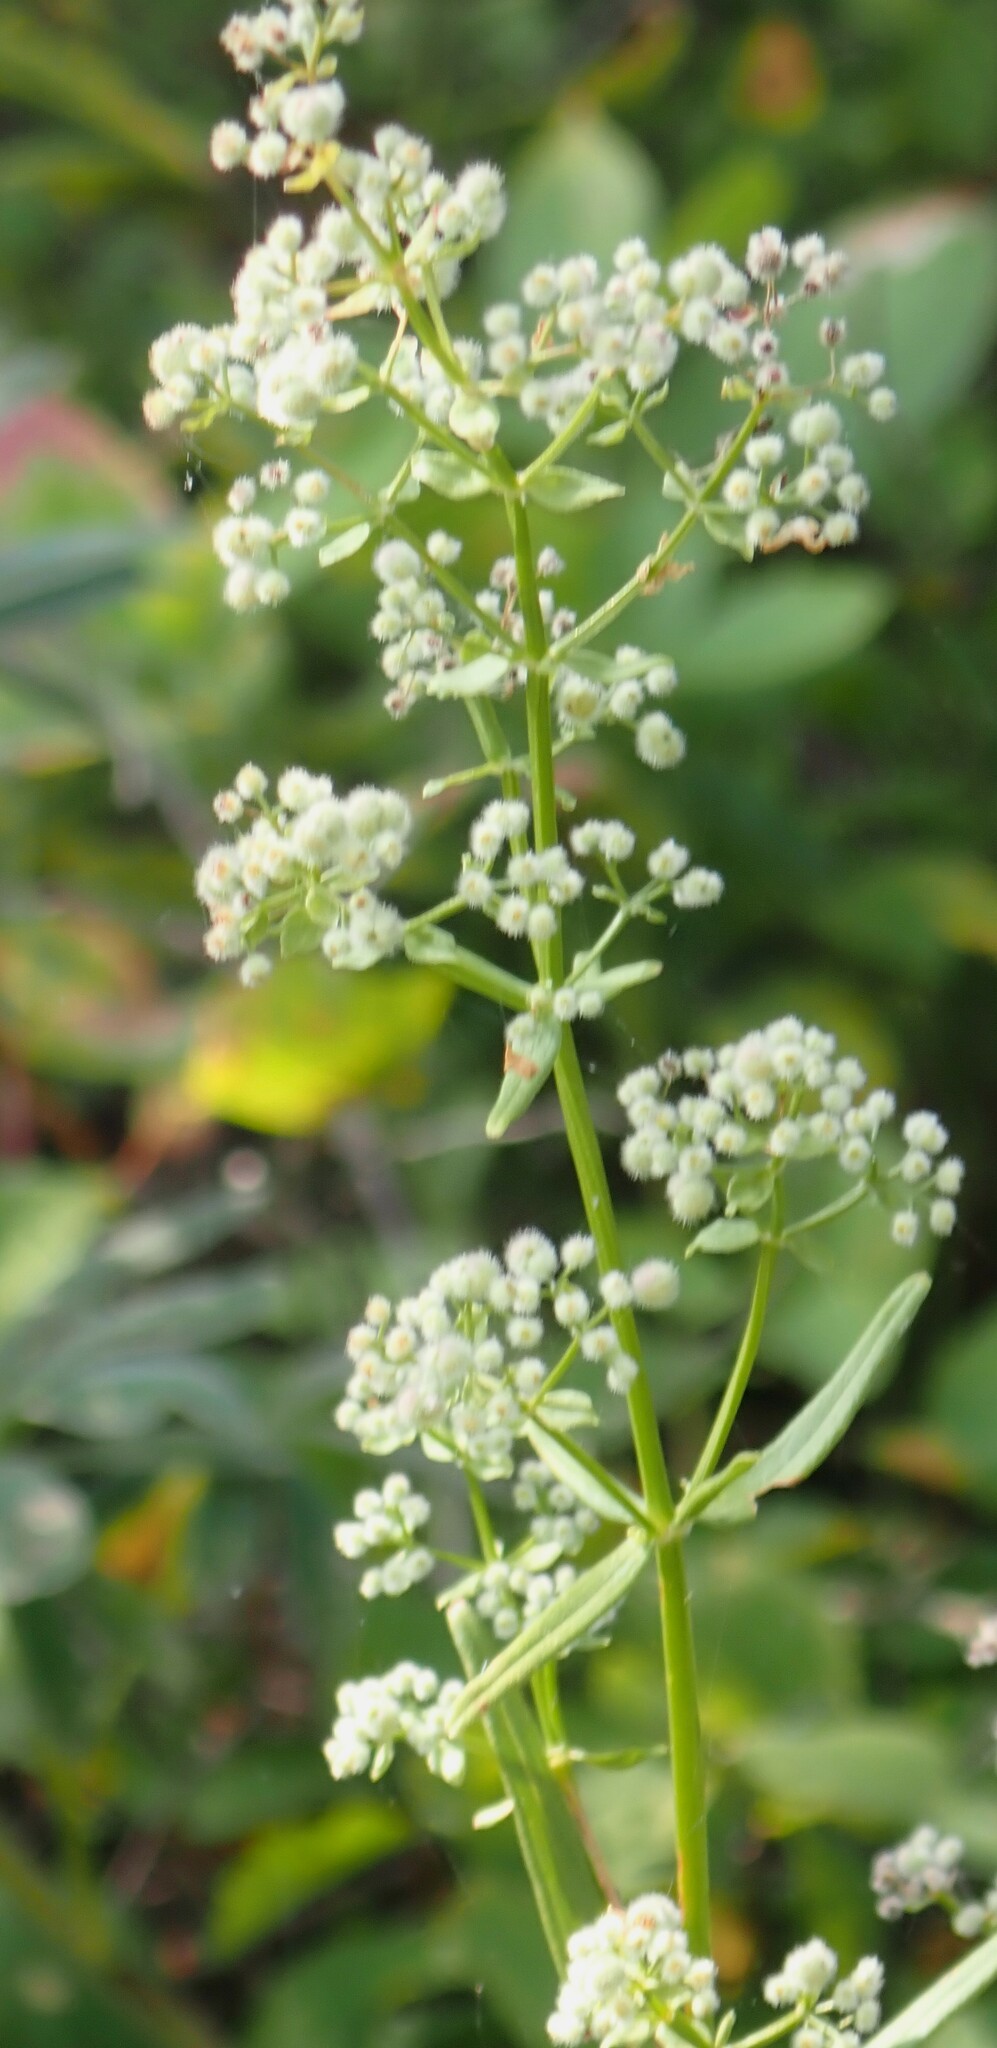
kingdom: Plantae
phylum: Tracheophyta
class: Magnoliopsida
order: Gentianales
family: Rubiaceae
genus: Galium
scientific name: Galium boreale
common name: Northern bedstraw
